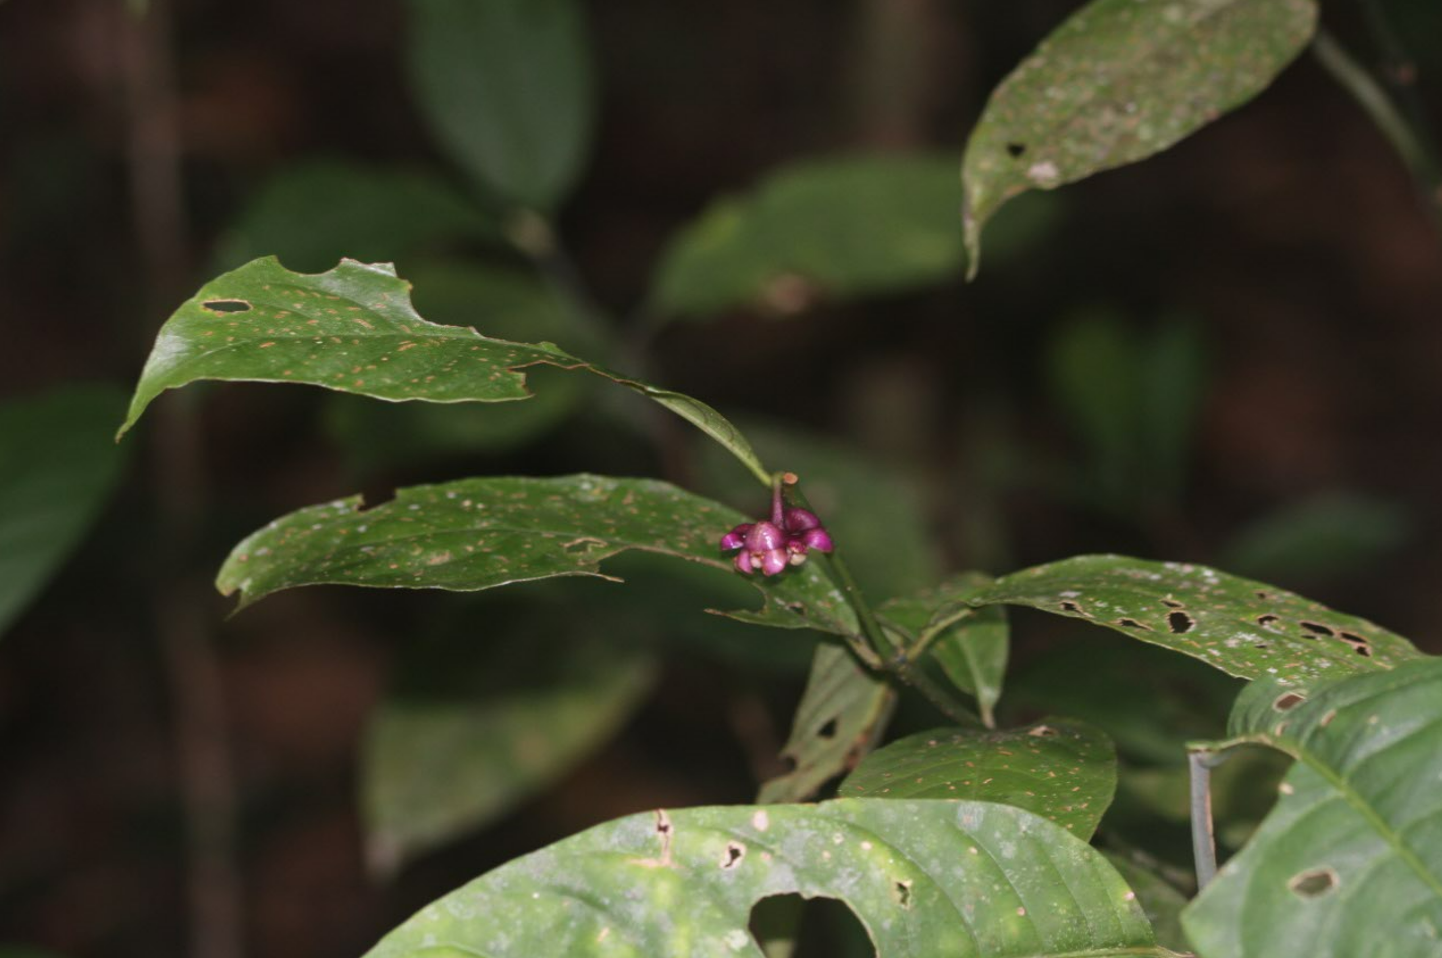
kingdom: Plantae
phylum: Tracheophyta
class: Magnoliopsida
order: Gentianales
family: Rubiaceae
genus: Palicourea
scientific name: Palicourea dichotoma
